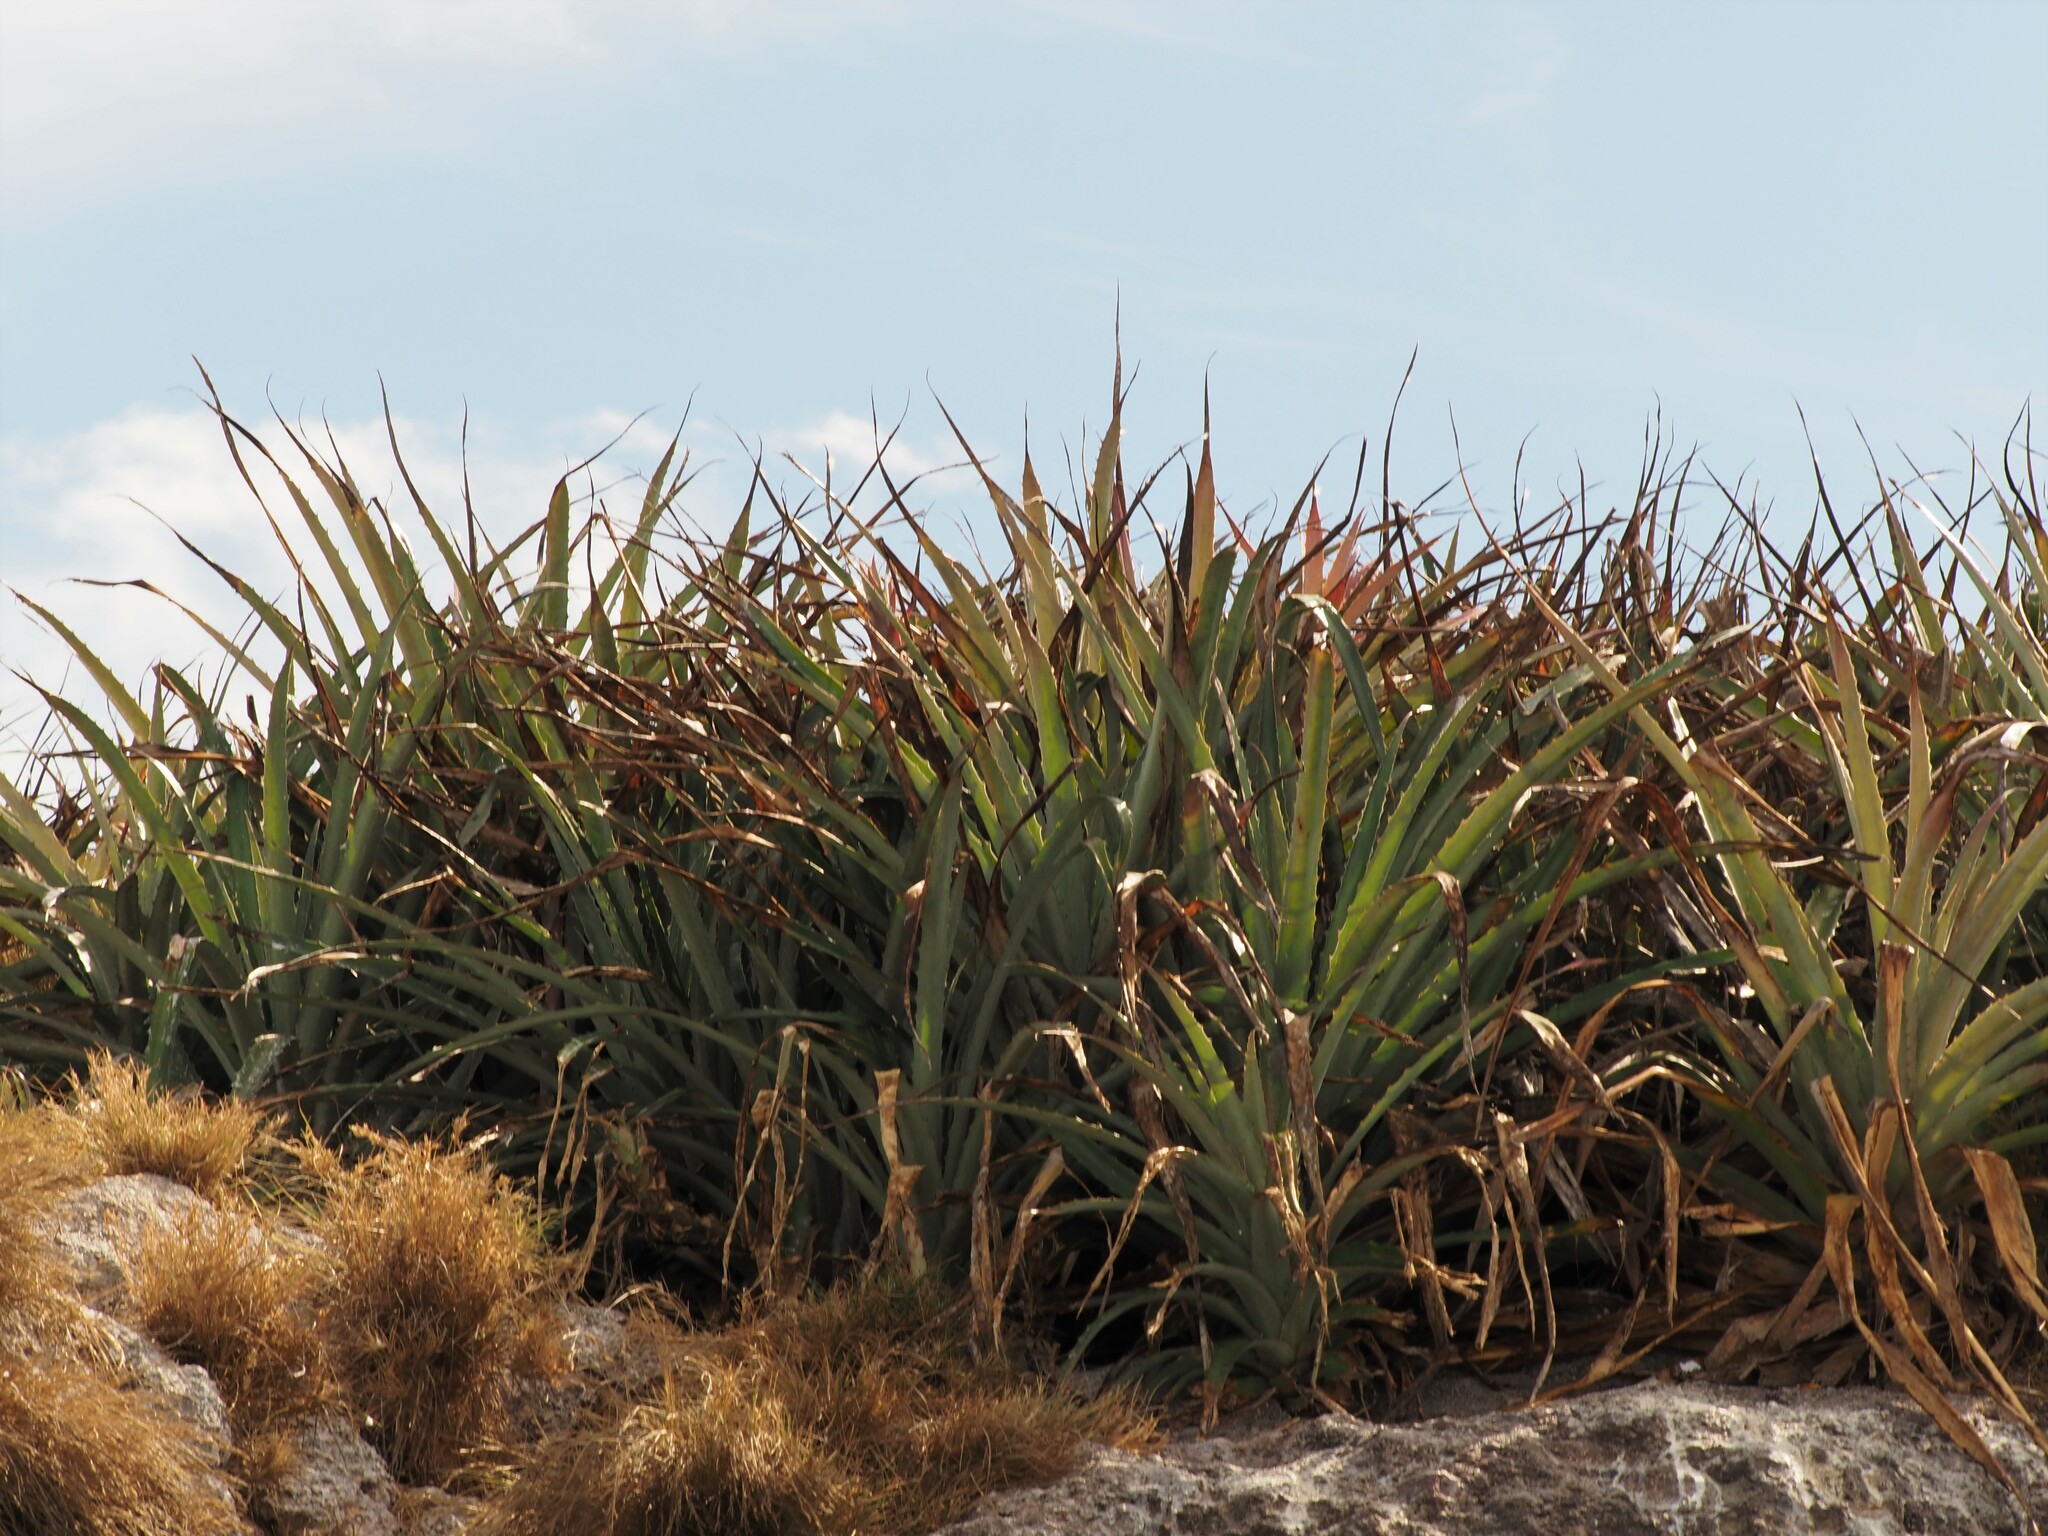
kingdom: Plantae
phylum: Tracheophyta
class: Liliopsida
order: Poales
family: Bromeliaceae
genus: Bromelia
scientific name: Bromelia pinguin
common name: Pinguin
